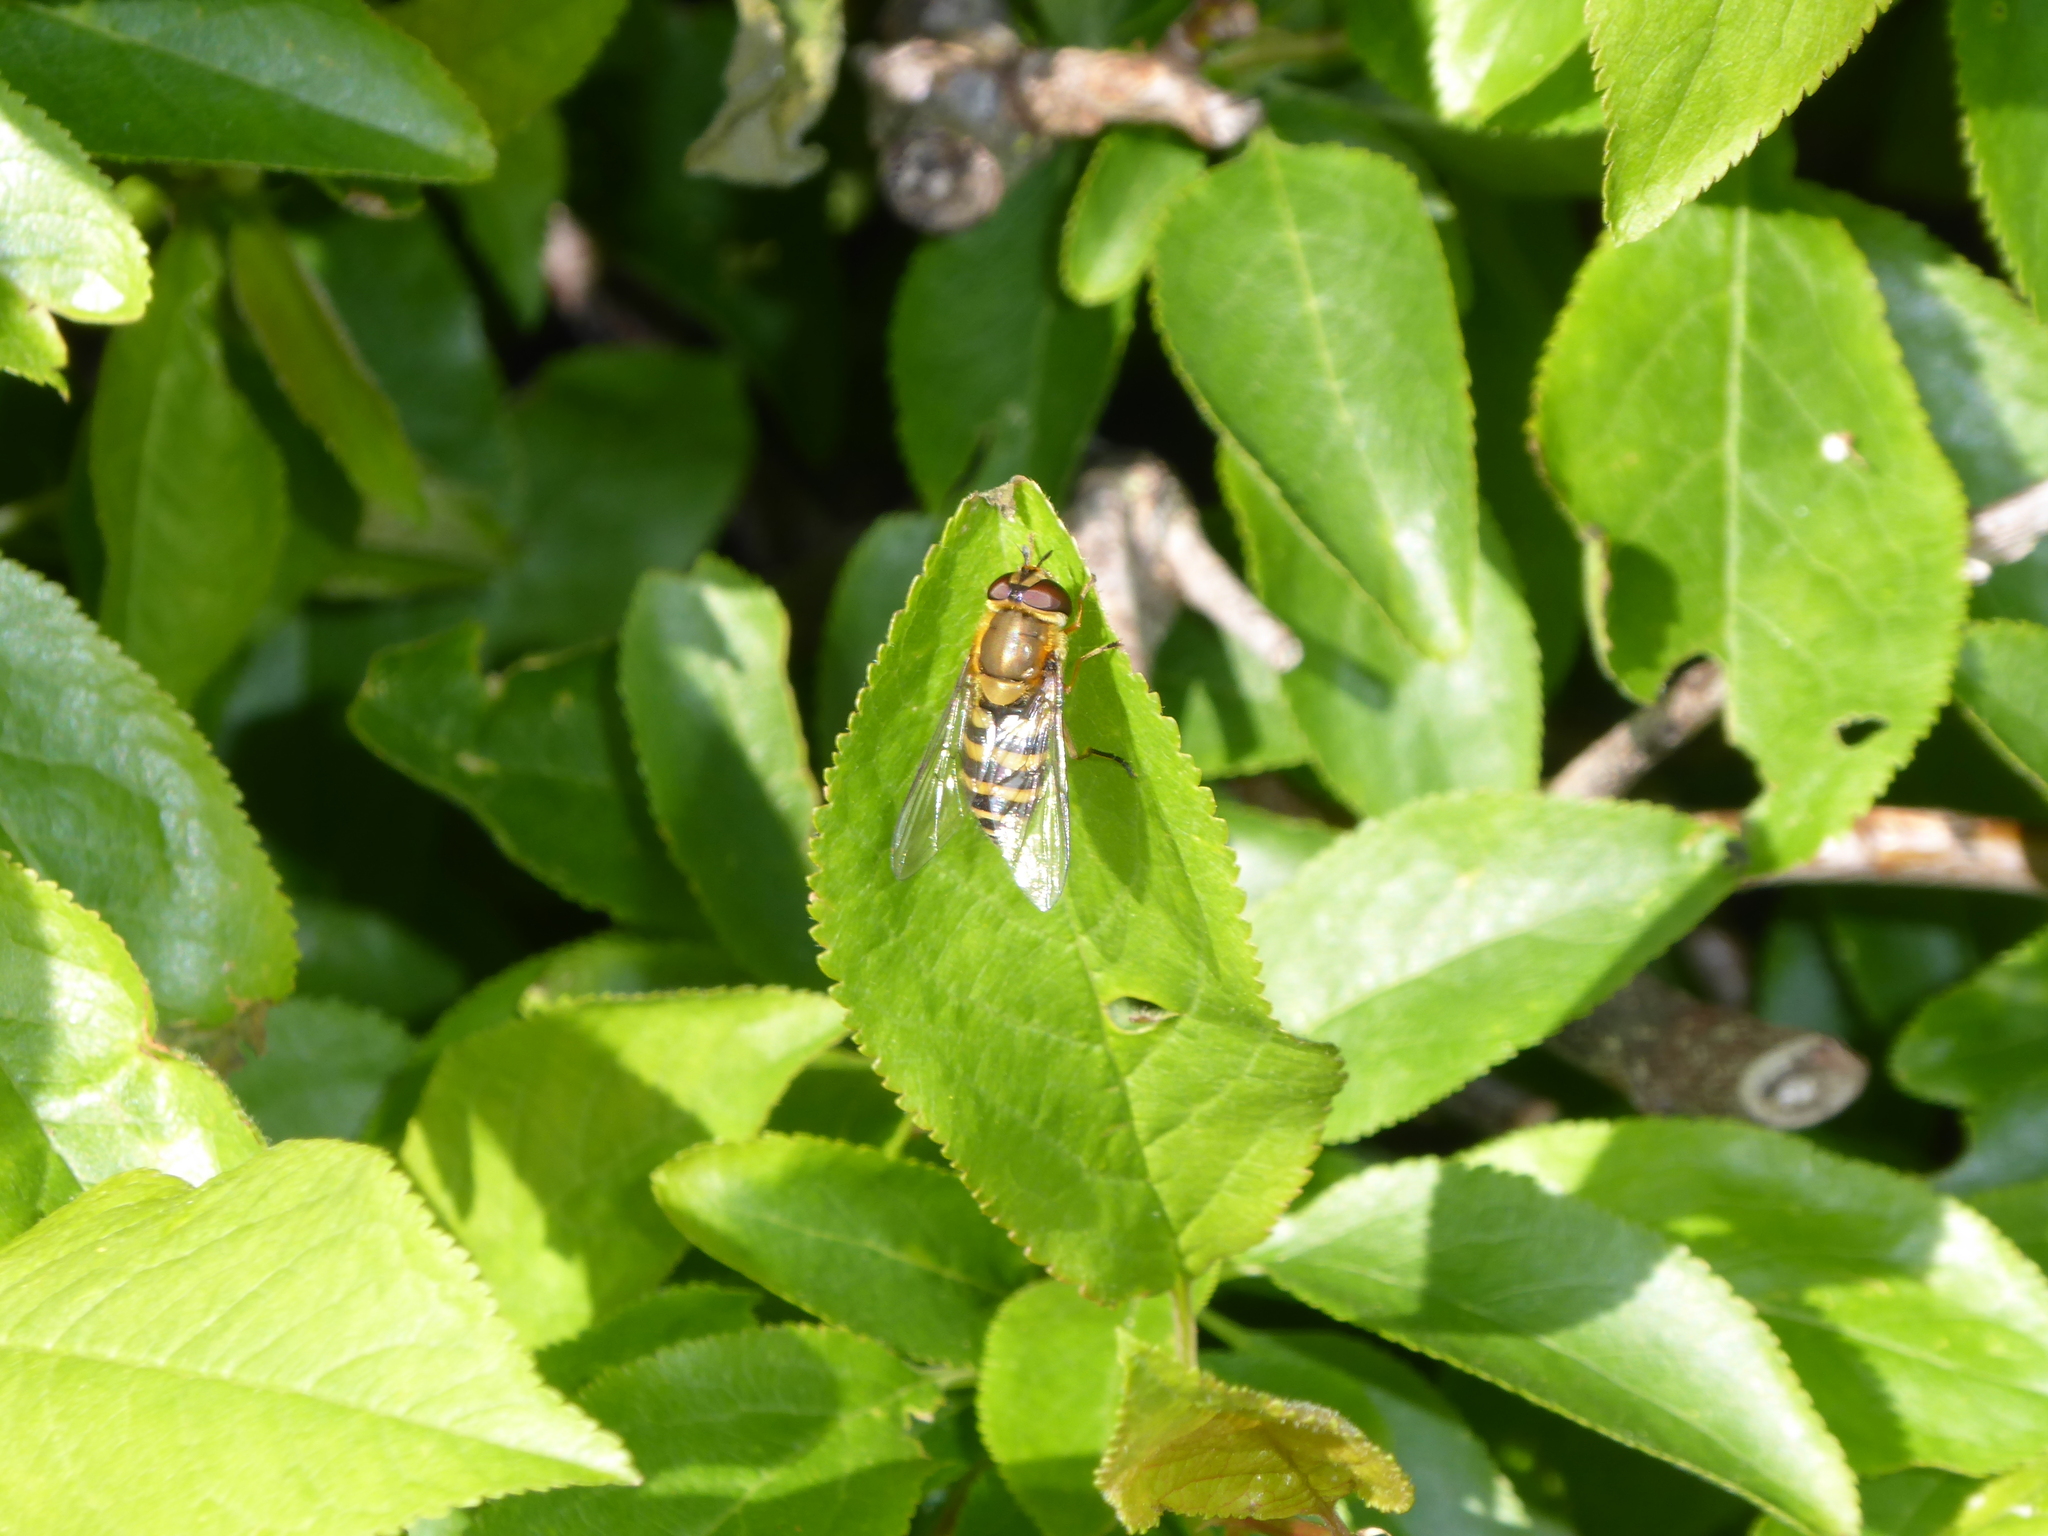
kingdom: Animalia
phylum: Arthropoda
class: Insecta
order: Diptera
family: Syrphidae
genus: Syrphus
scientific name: Syrphus ribesii
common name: Common flower fly
